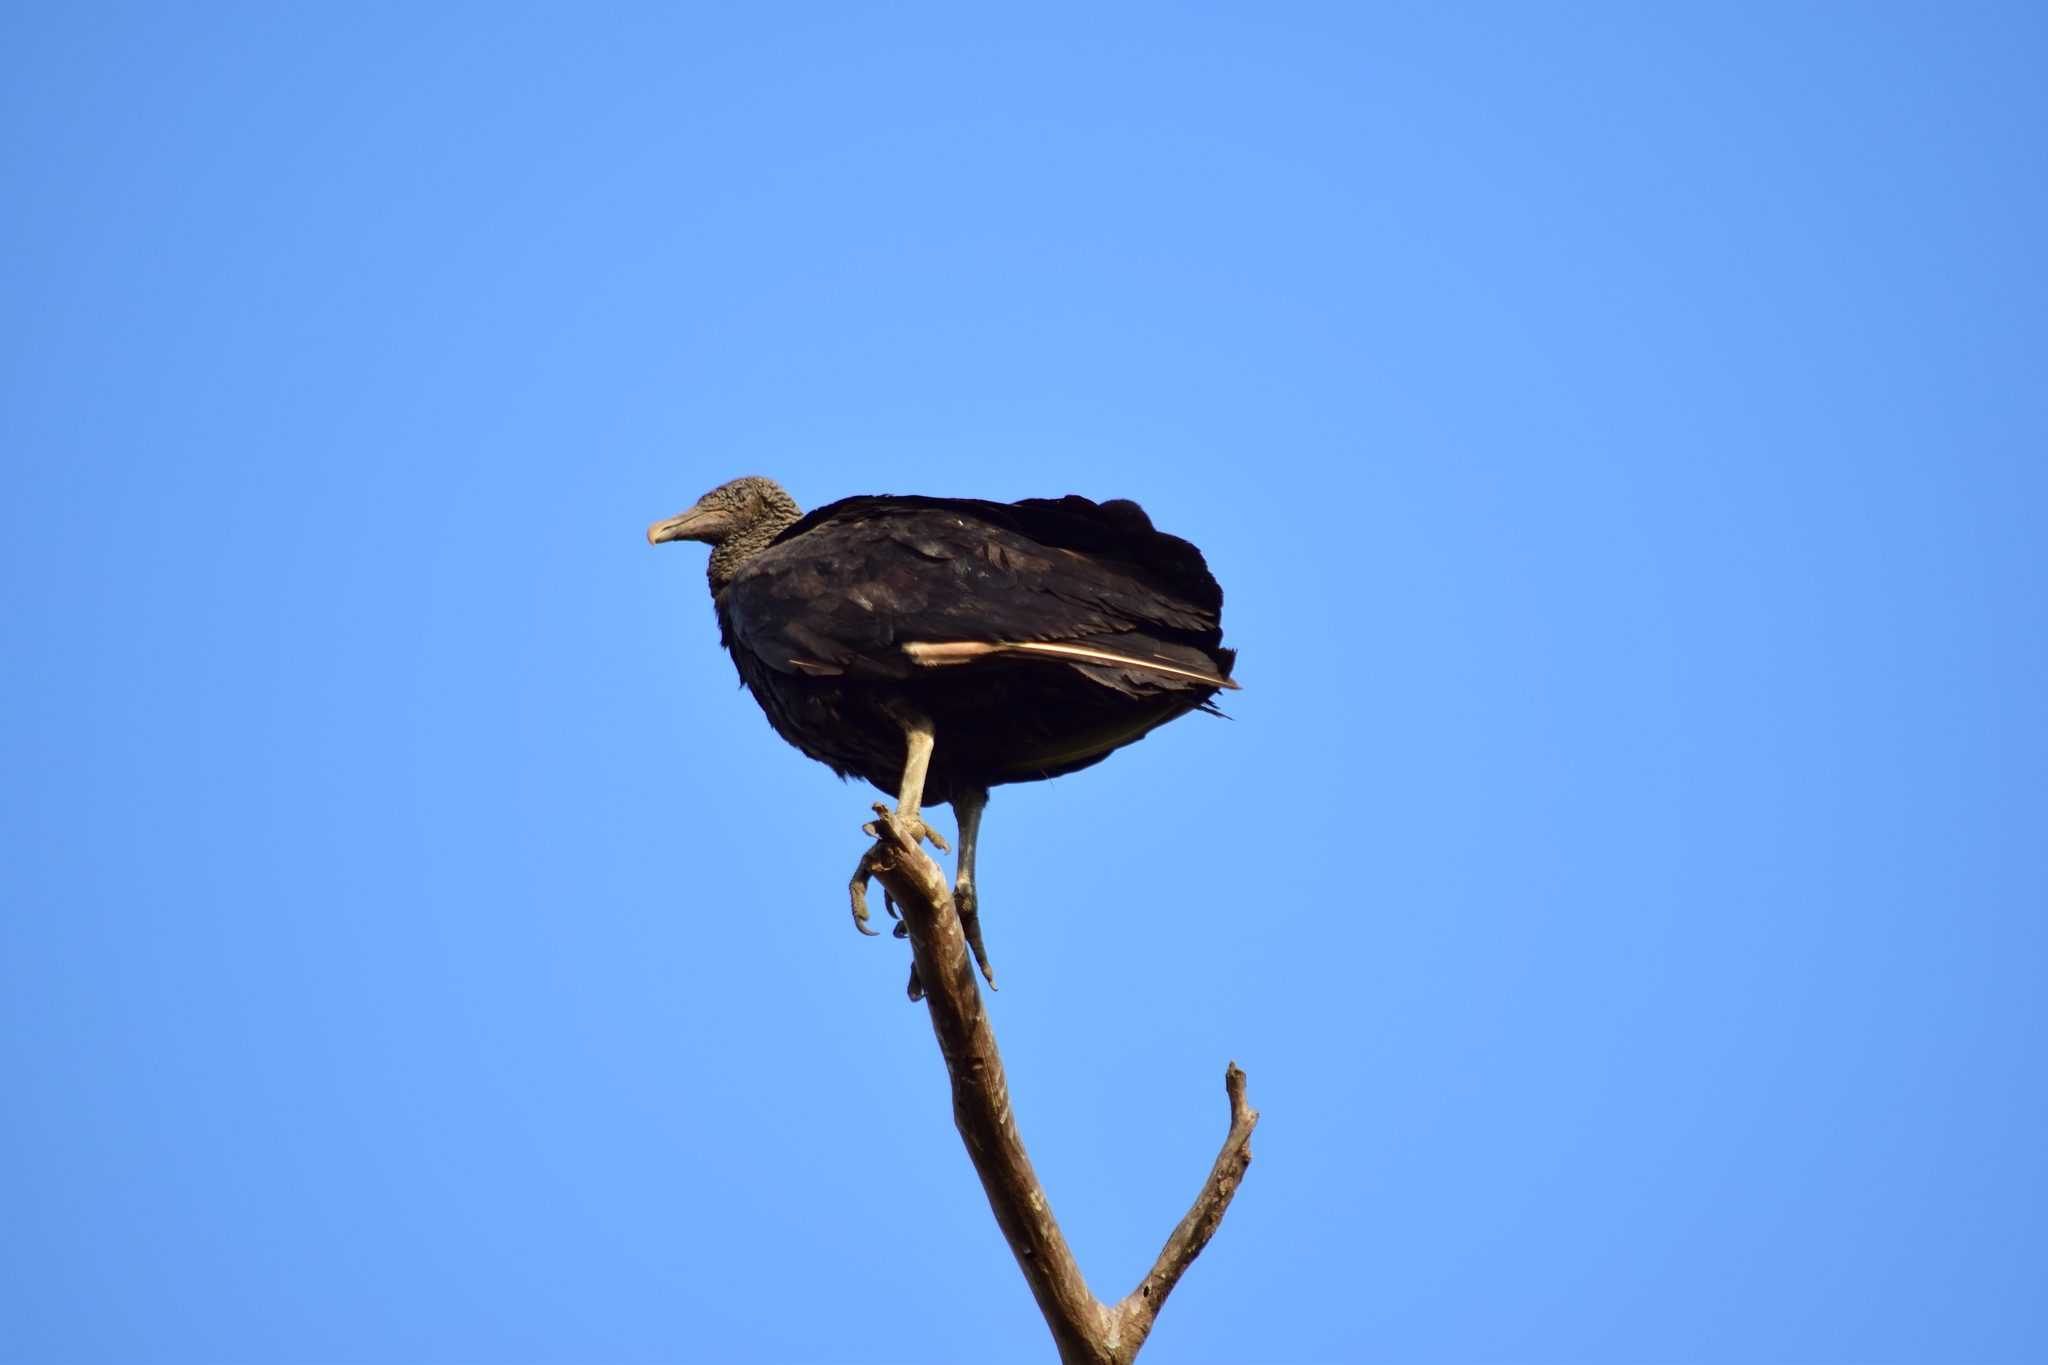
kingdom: Animalia
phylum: Chordata
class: Aves
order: Accipitriformes
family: Cathartidae
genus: Coragyps
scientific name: Coragyps atratus
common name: Black vulture
